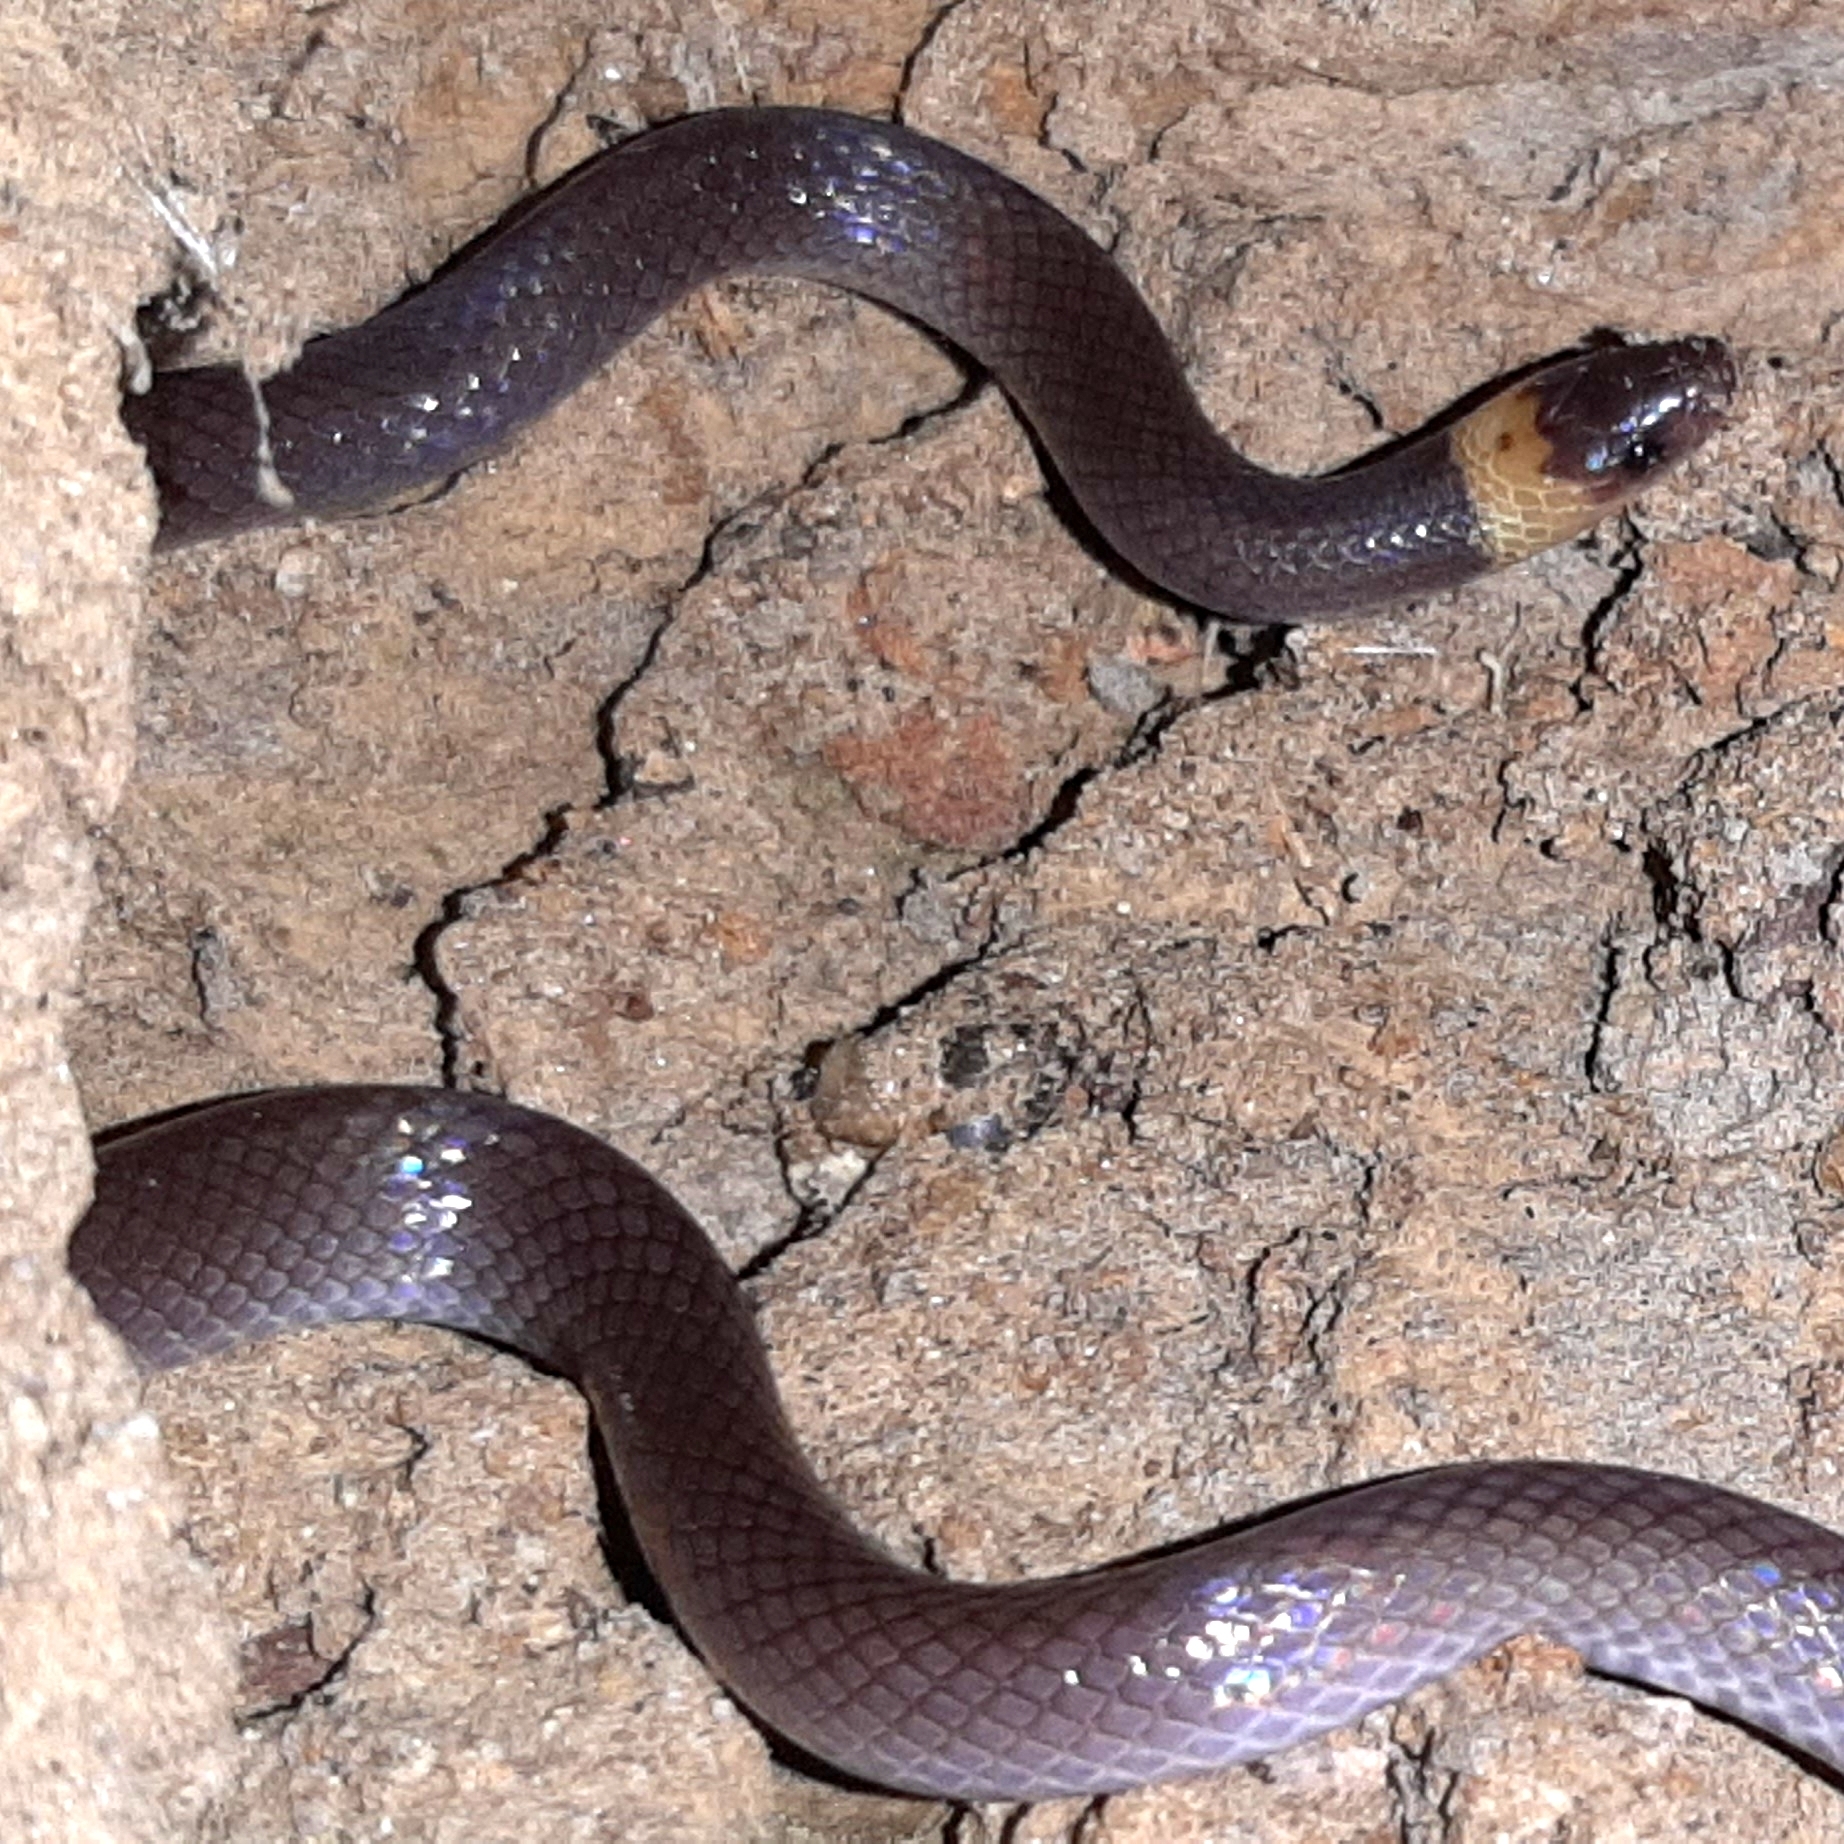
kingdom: Animalia
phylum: Chordata
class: Squamata
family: Colubridae
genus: Enulius
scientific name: Enulius flavitorques
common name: Pacific longtail snake
